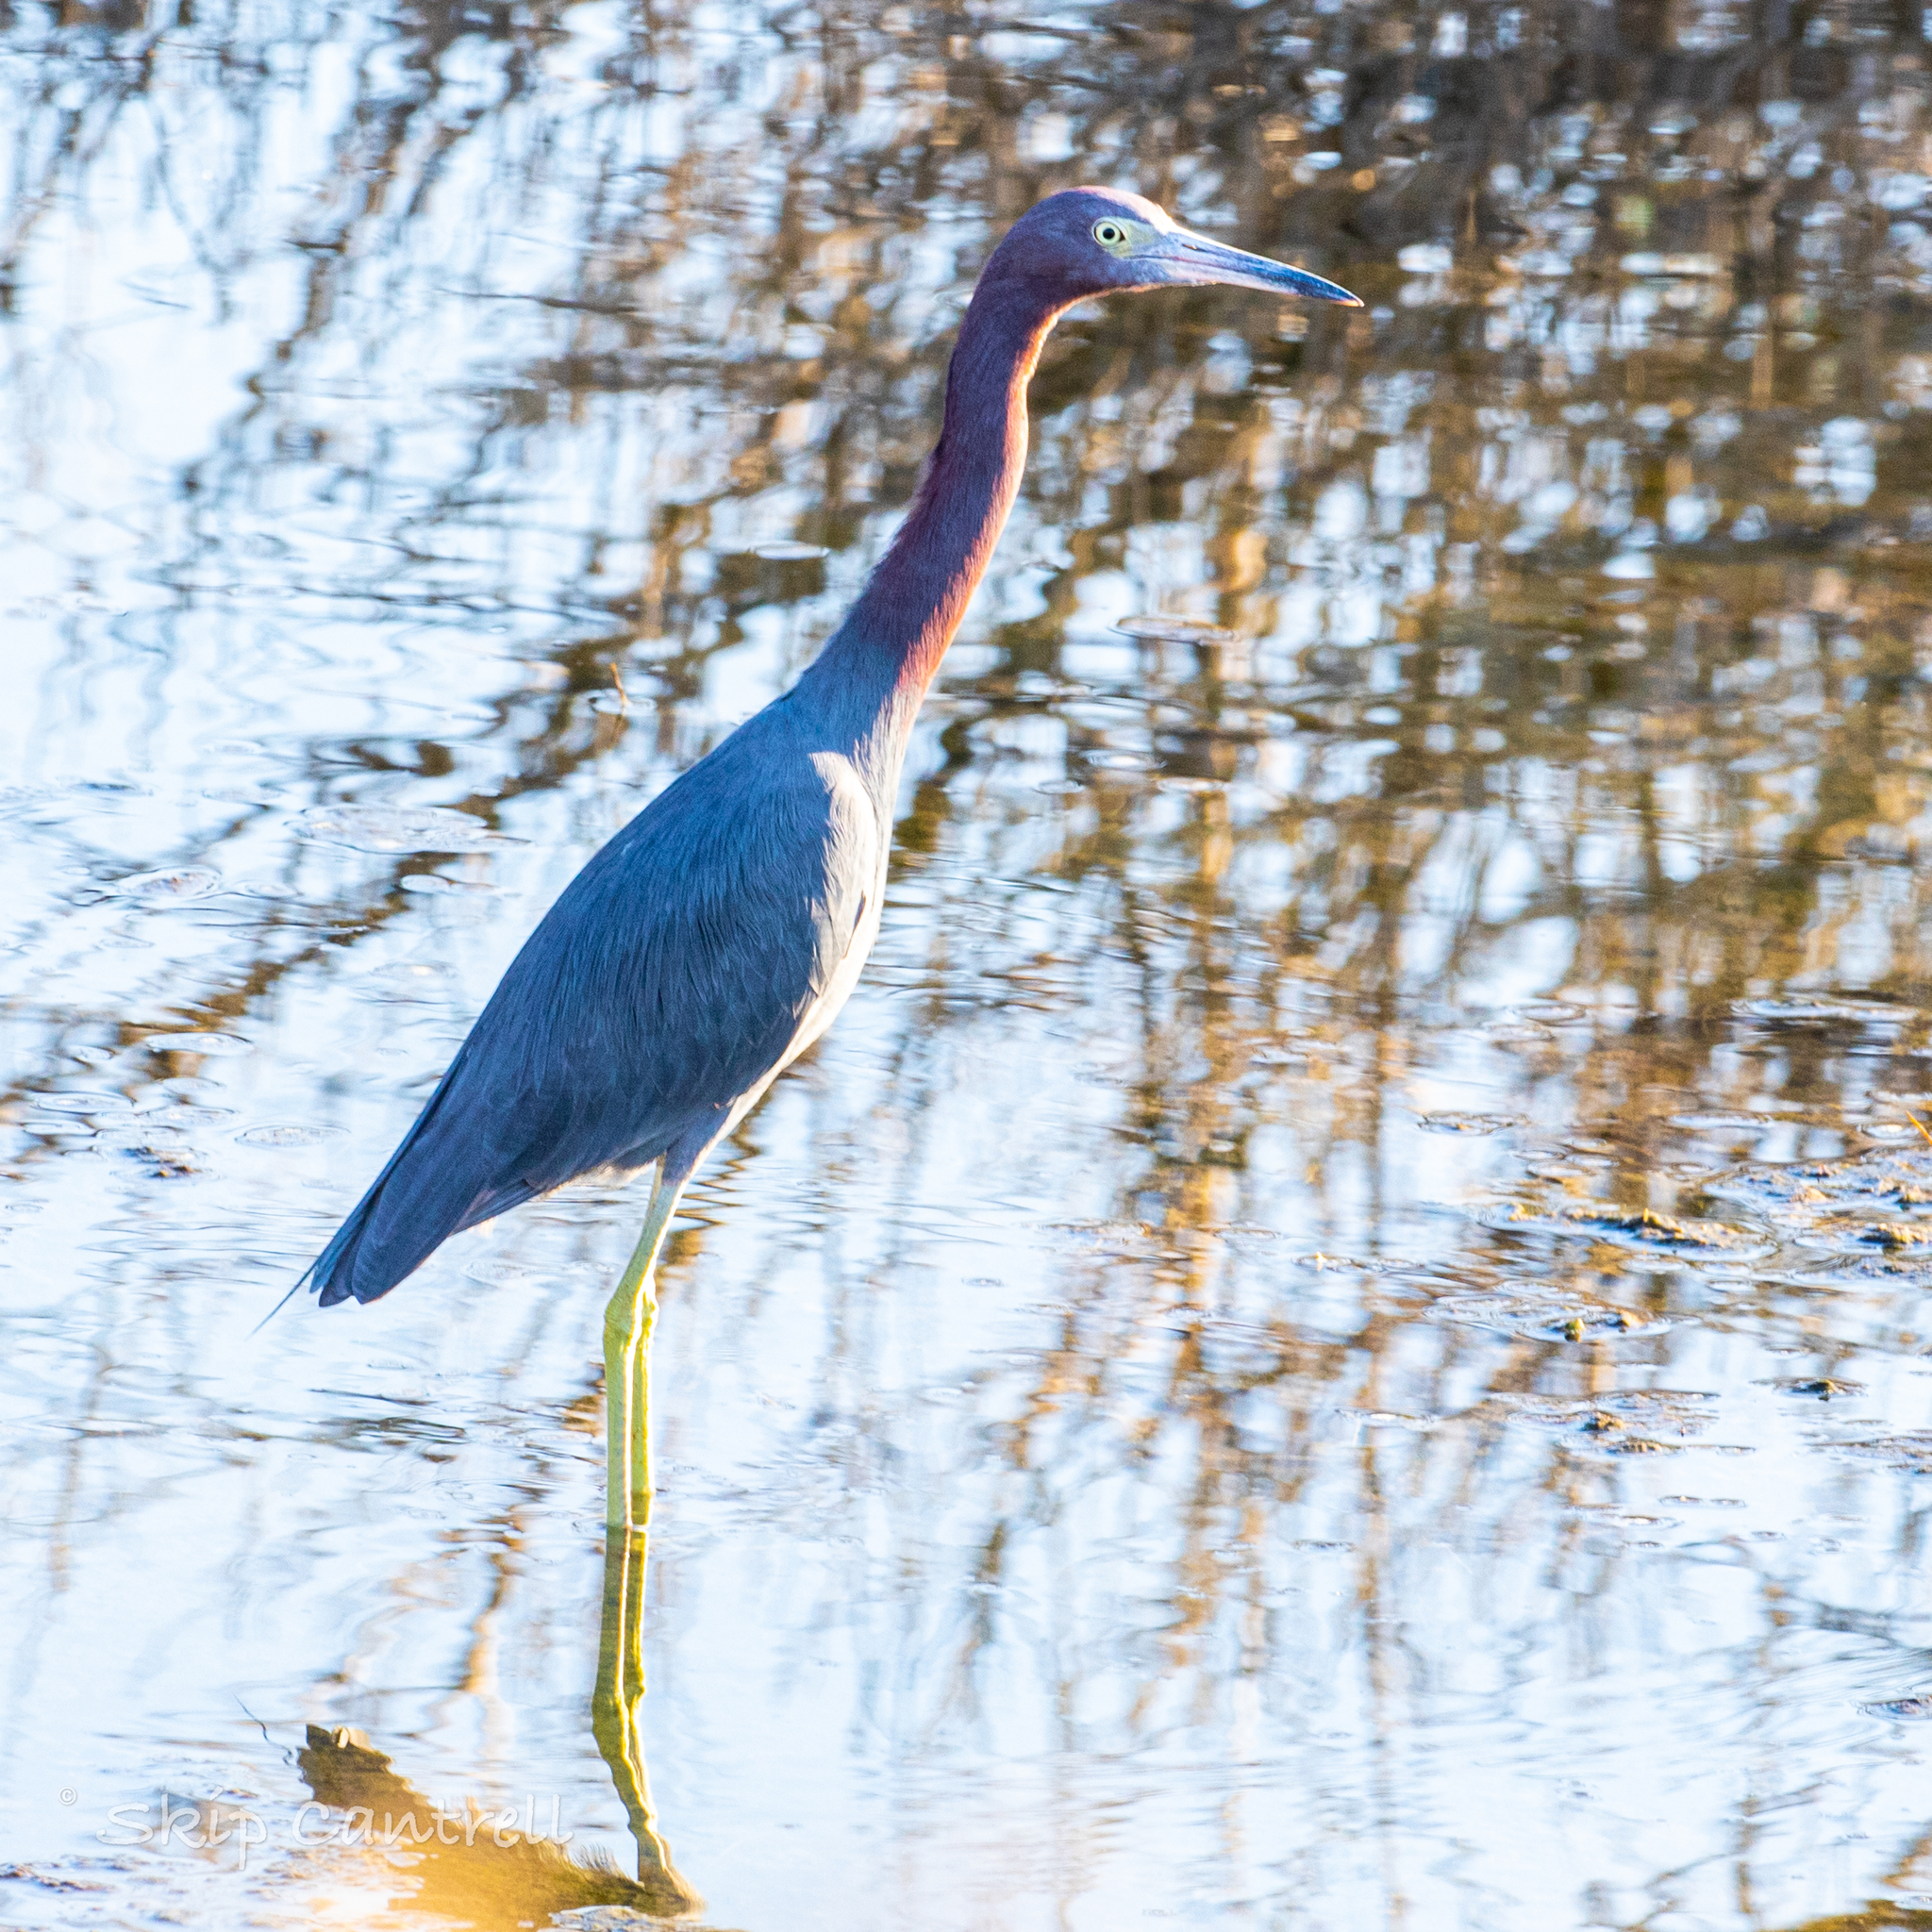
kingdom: Animalia
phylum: Chordata
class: Aves
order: Pelecaniformes
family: Ardeidae
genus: Egretta
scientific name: Egretta caerulea
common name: Little blue heron
